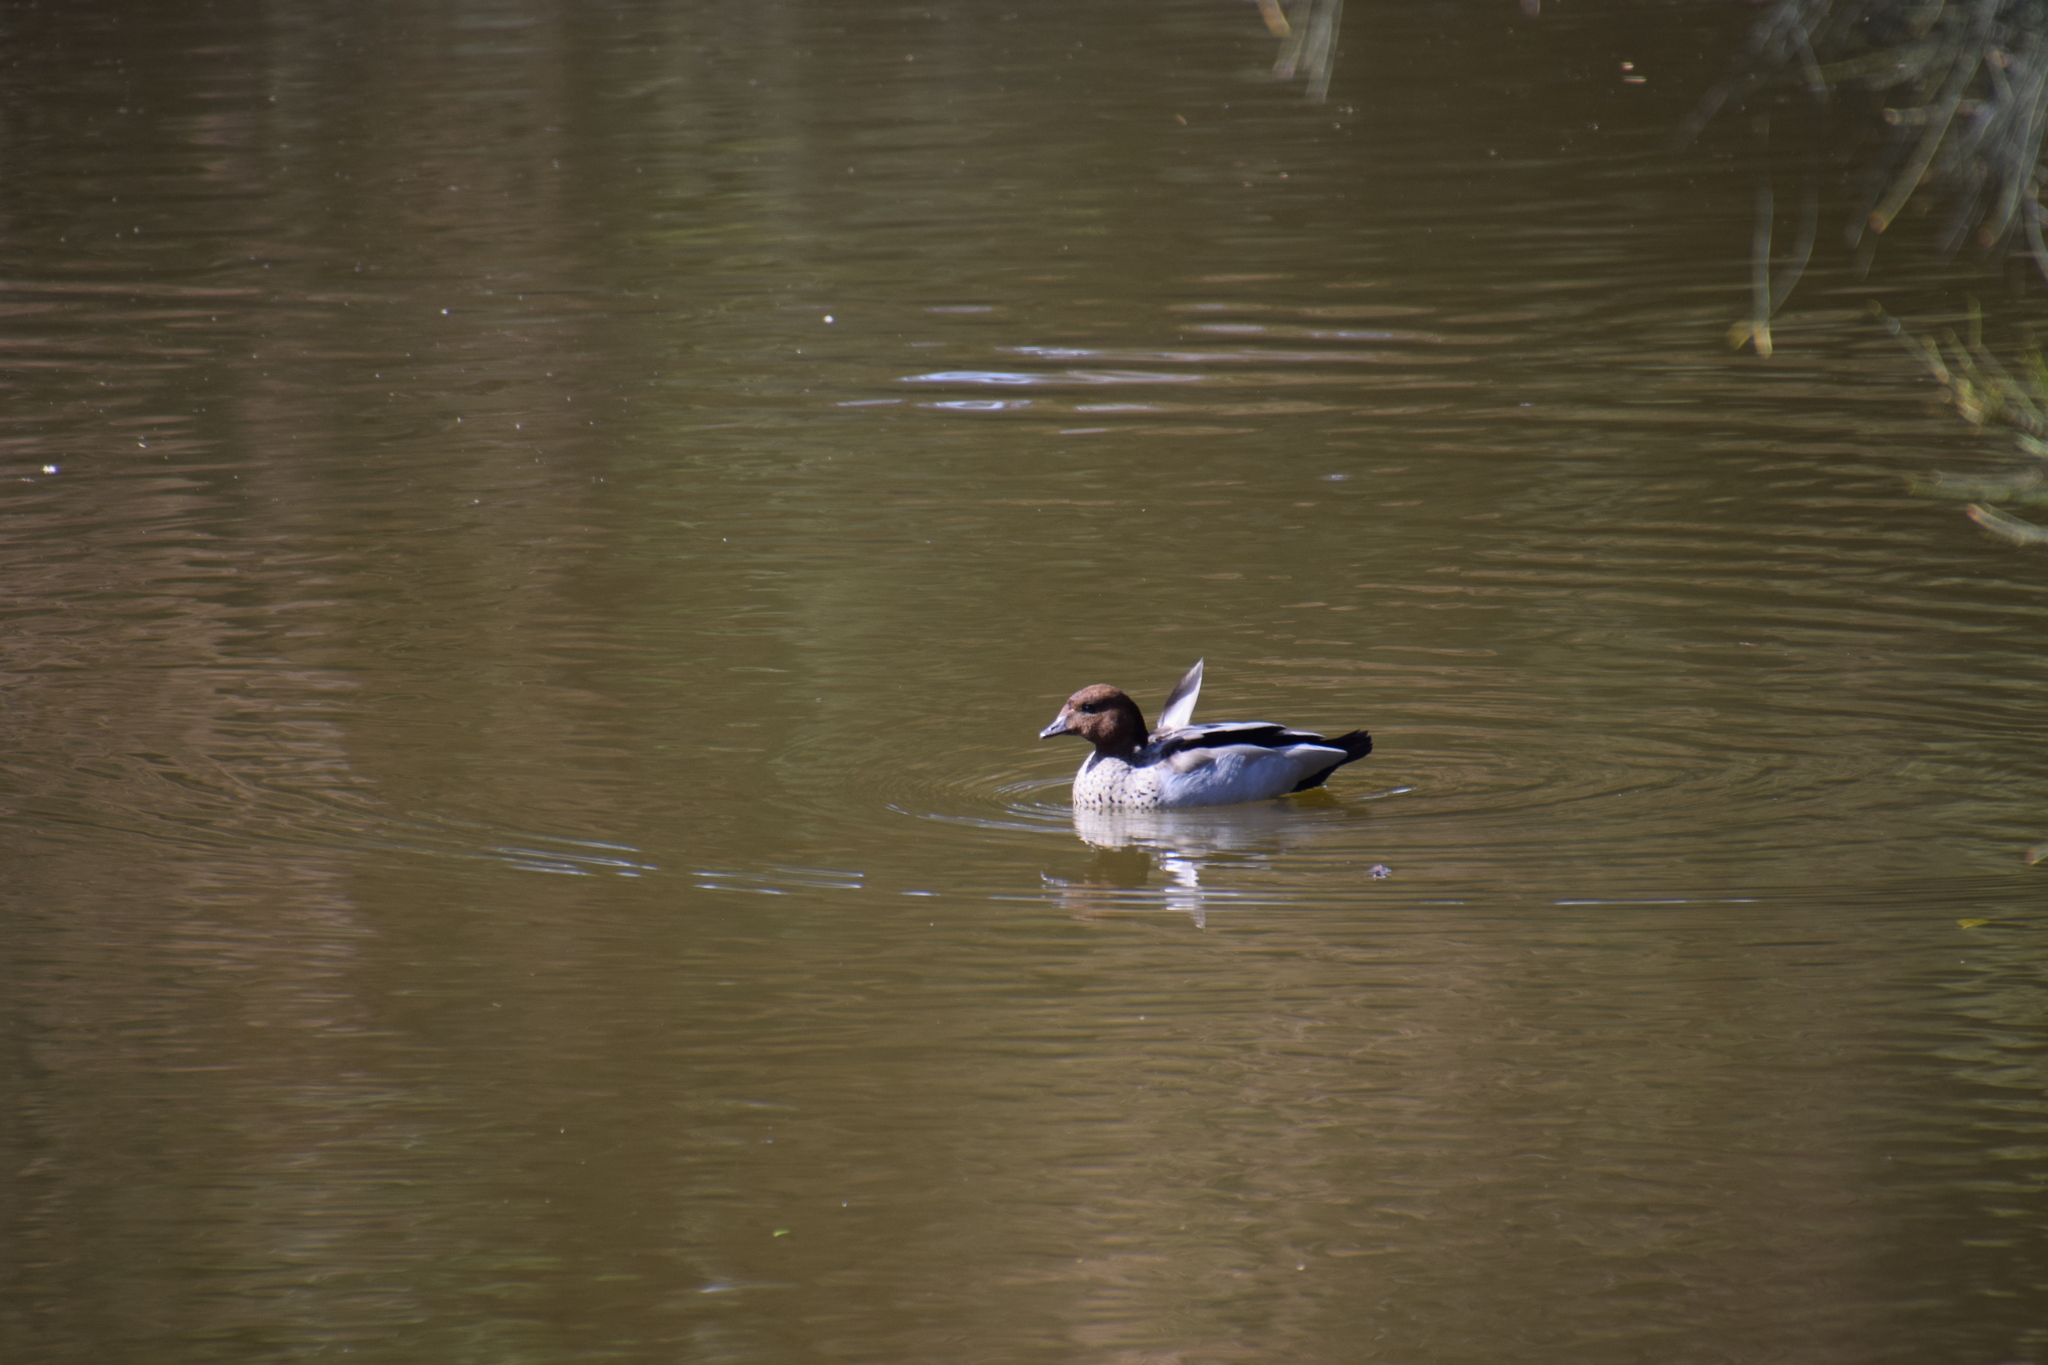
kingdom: Animalia
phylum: Chordata
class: Aves
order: Anseriformes
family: Anatidae
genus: Chenonetta
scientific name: Chenonetta jubata
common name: Maned duck
